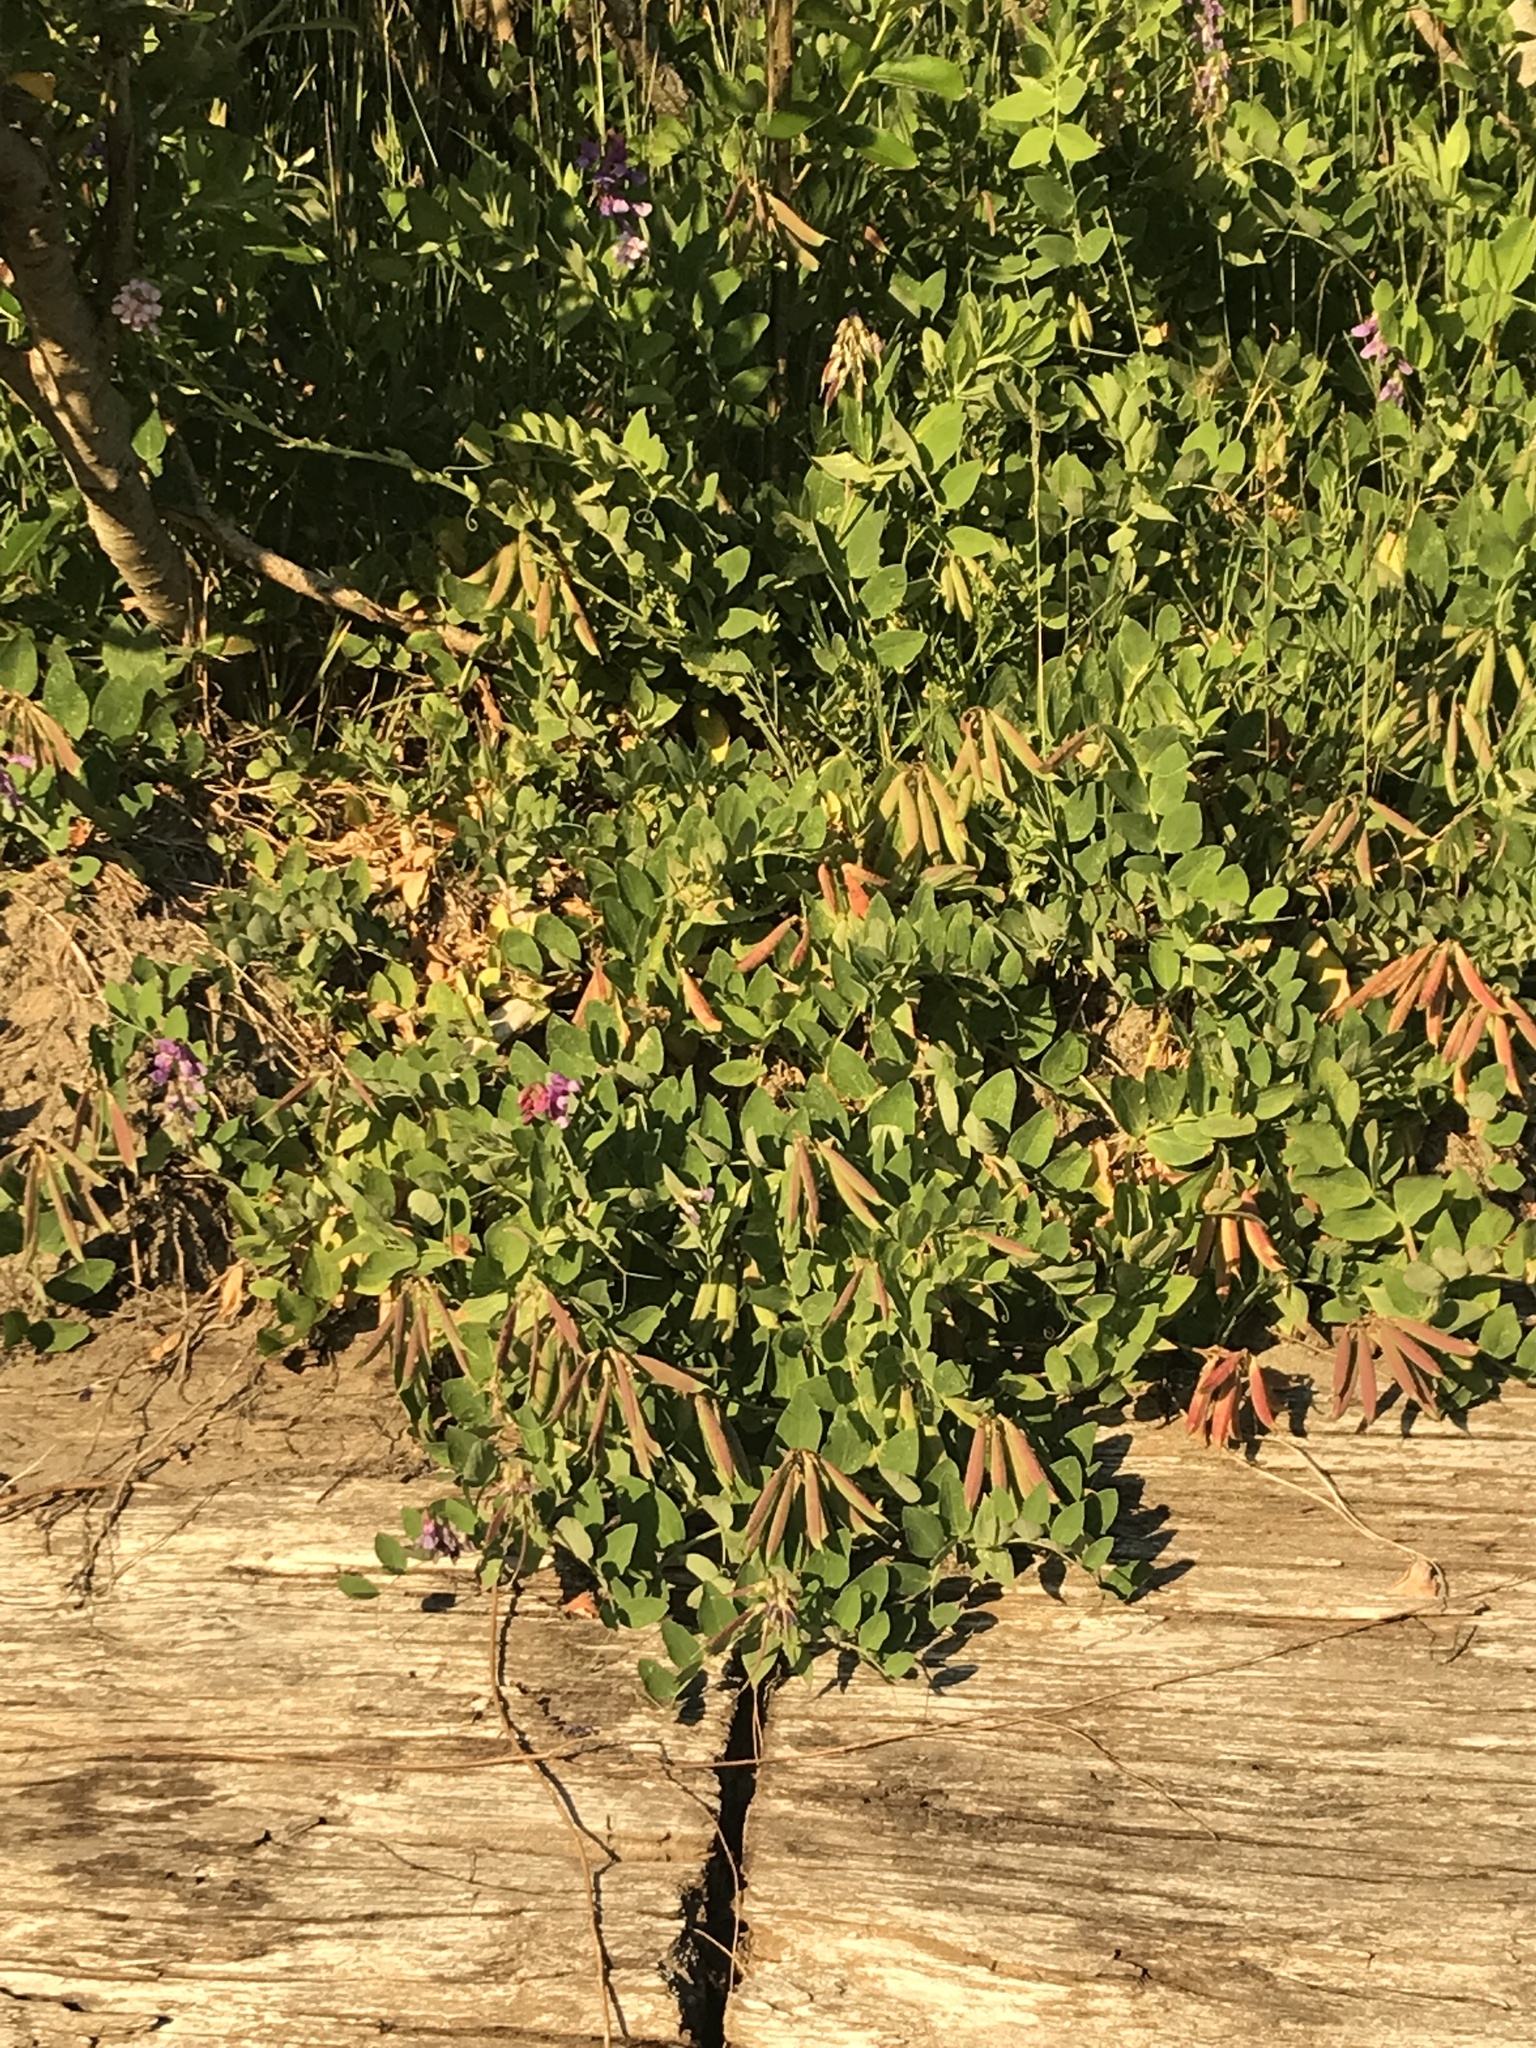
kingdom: Plantae
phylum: Tracheophyta
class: Magnoliopsida
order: Fabales
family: Fabaceae
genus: Lathyrus
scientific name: Lathyrus japonicus
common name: Sea pea
